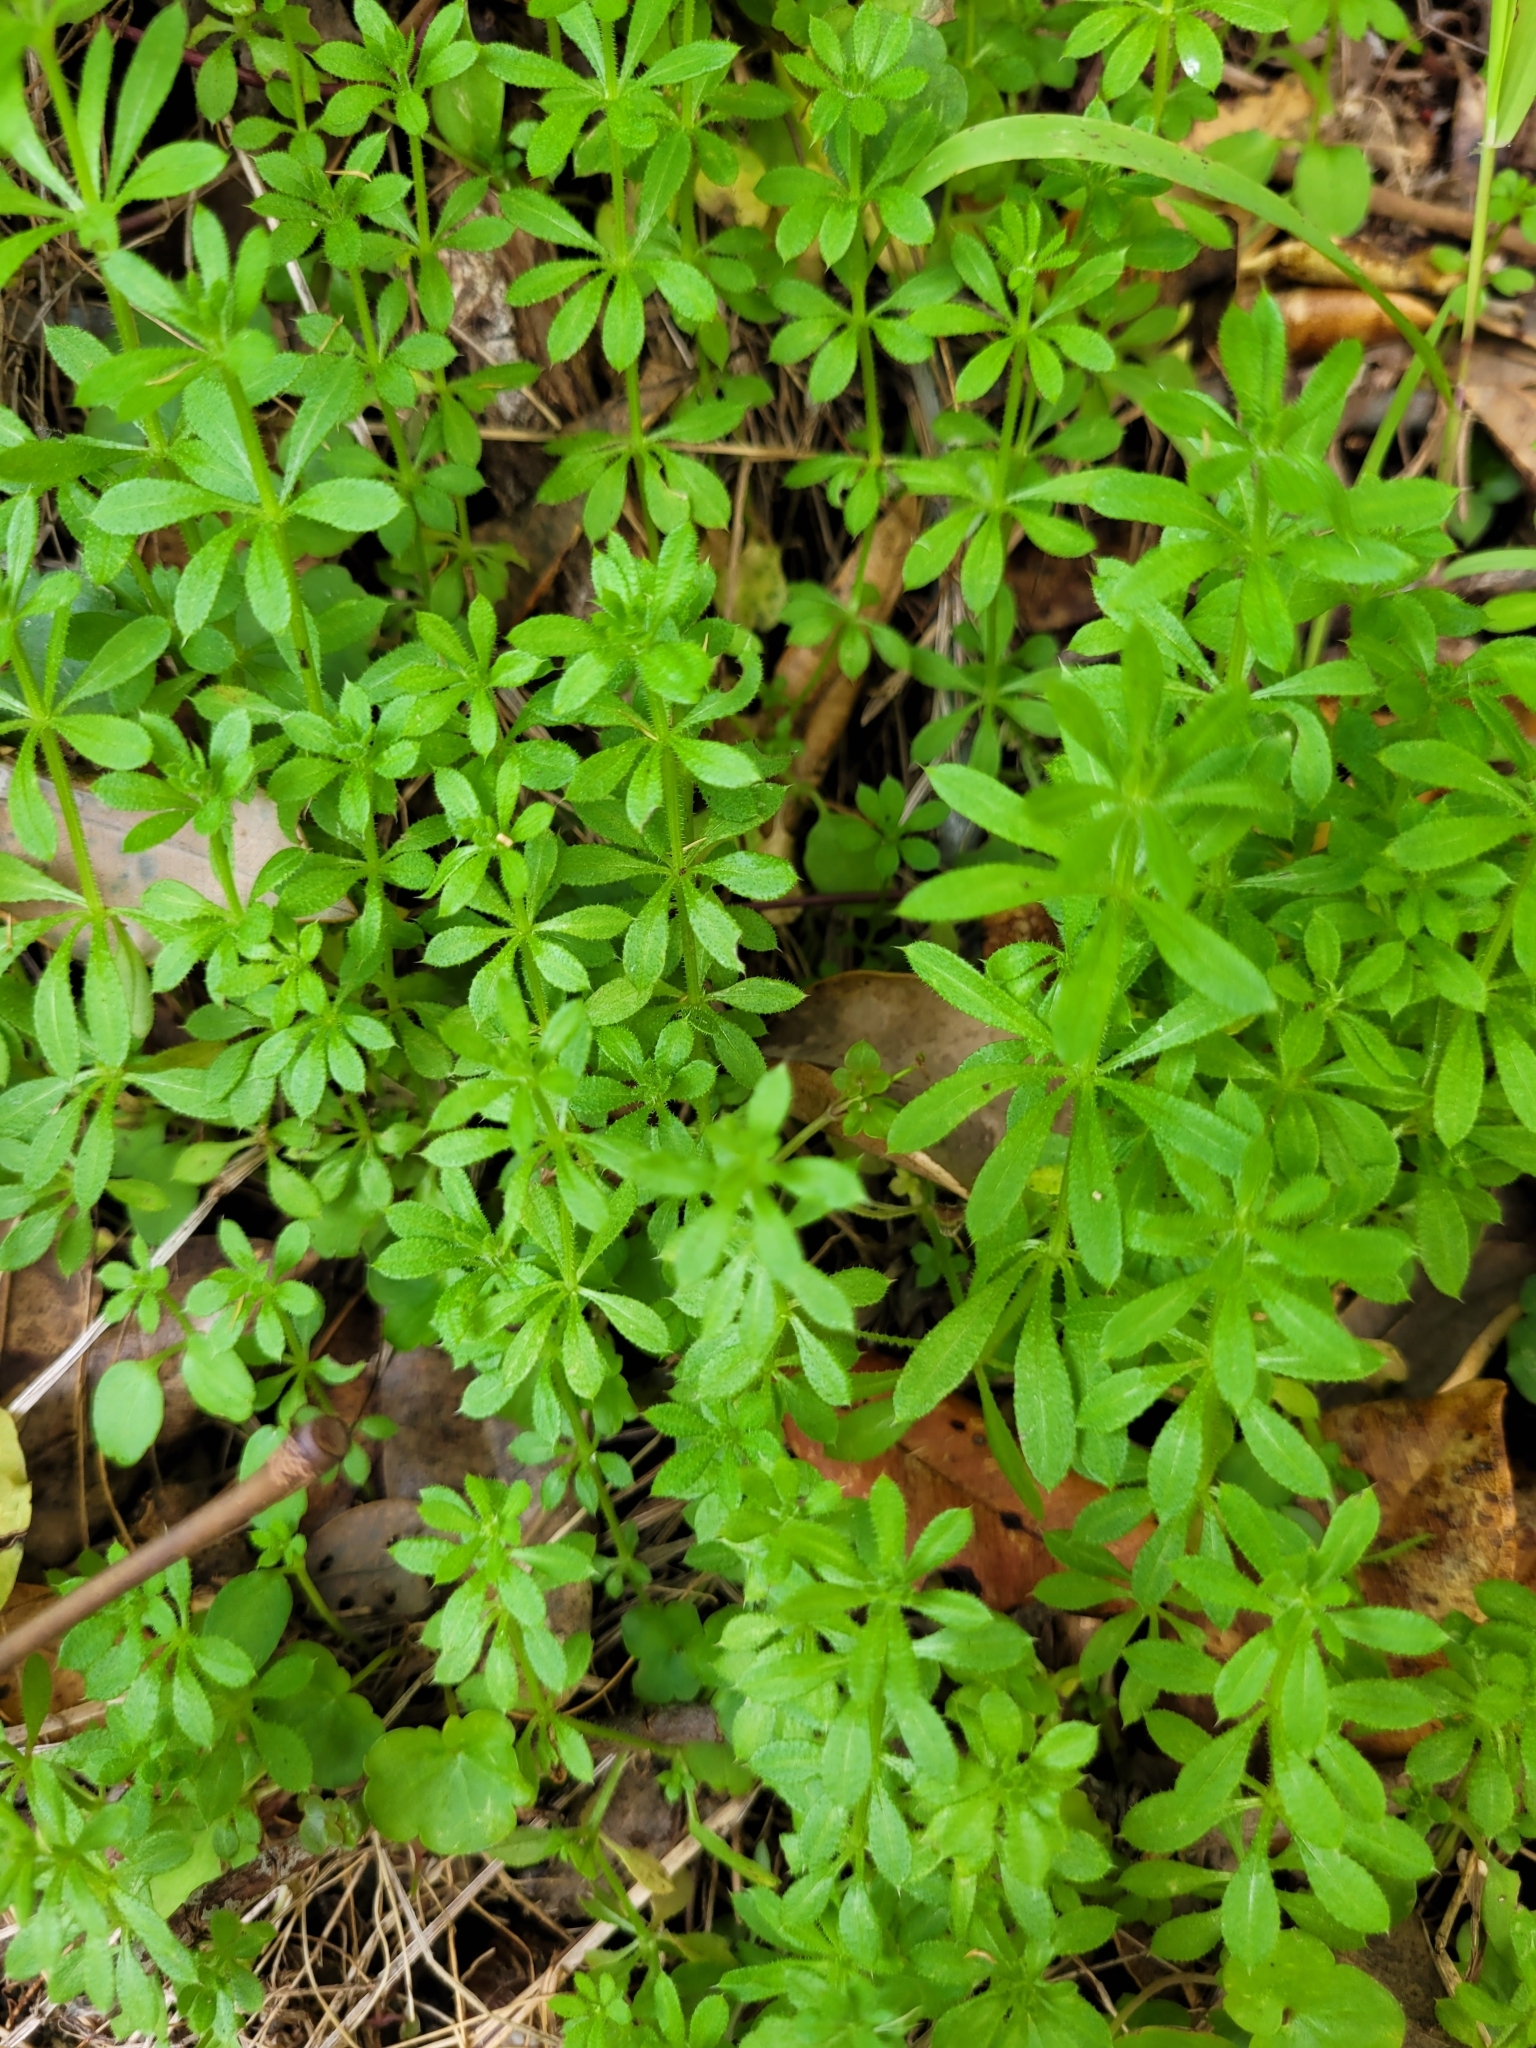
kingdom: Plantae
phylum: Tracheophyta
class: Magnoliopsida
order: Gentianales
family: Rubiaceae
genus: Galium
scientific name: Galium aparine
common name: Cleavers
